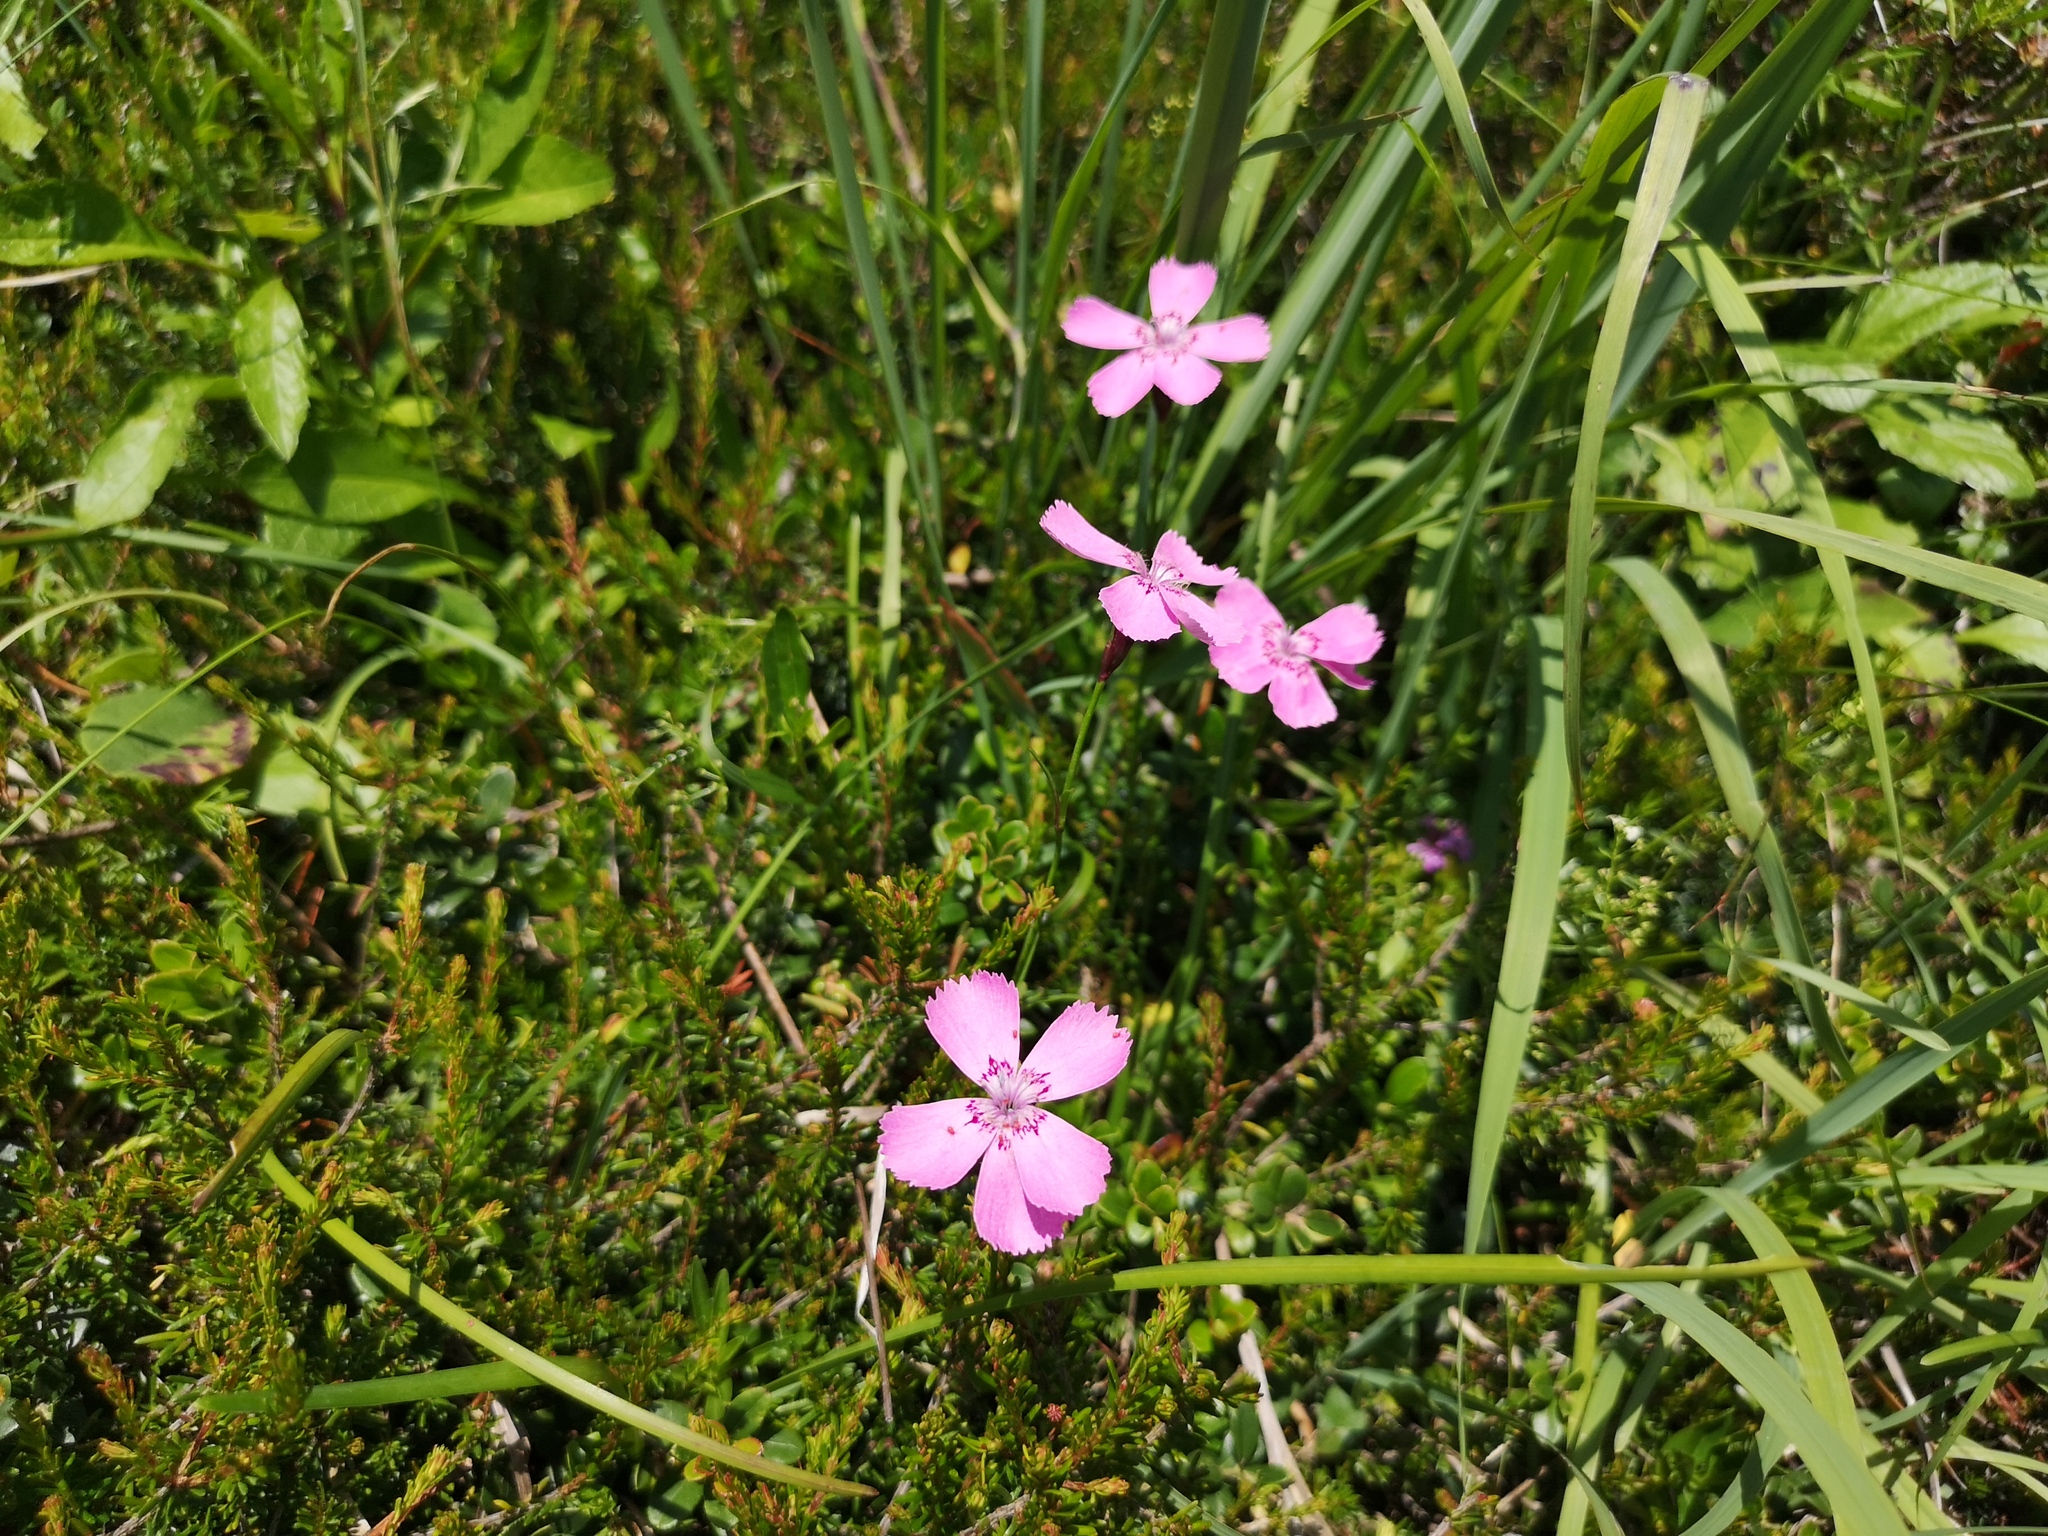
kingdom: Plantae
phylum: Tracheophyta
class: Magnoliopsida
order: Caryophyllales
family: Caryophyllaceae
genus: Dianthus
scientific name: Dianthus alpinus
